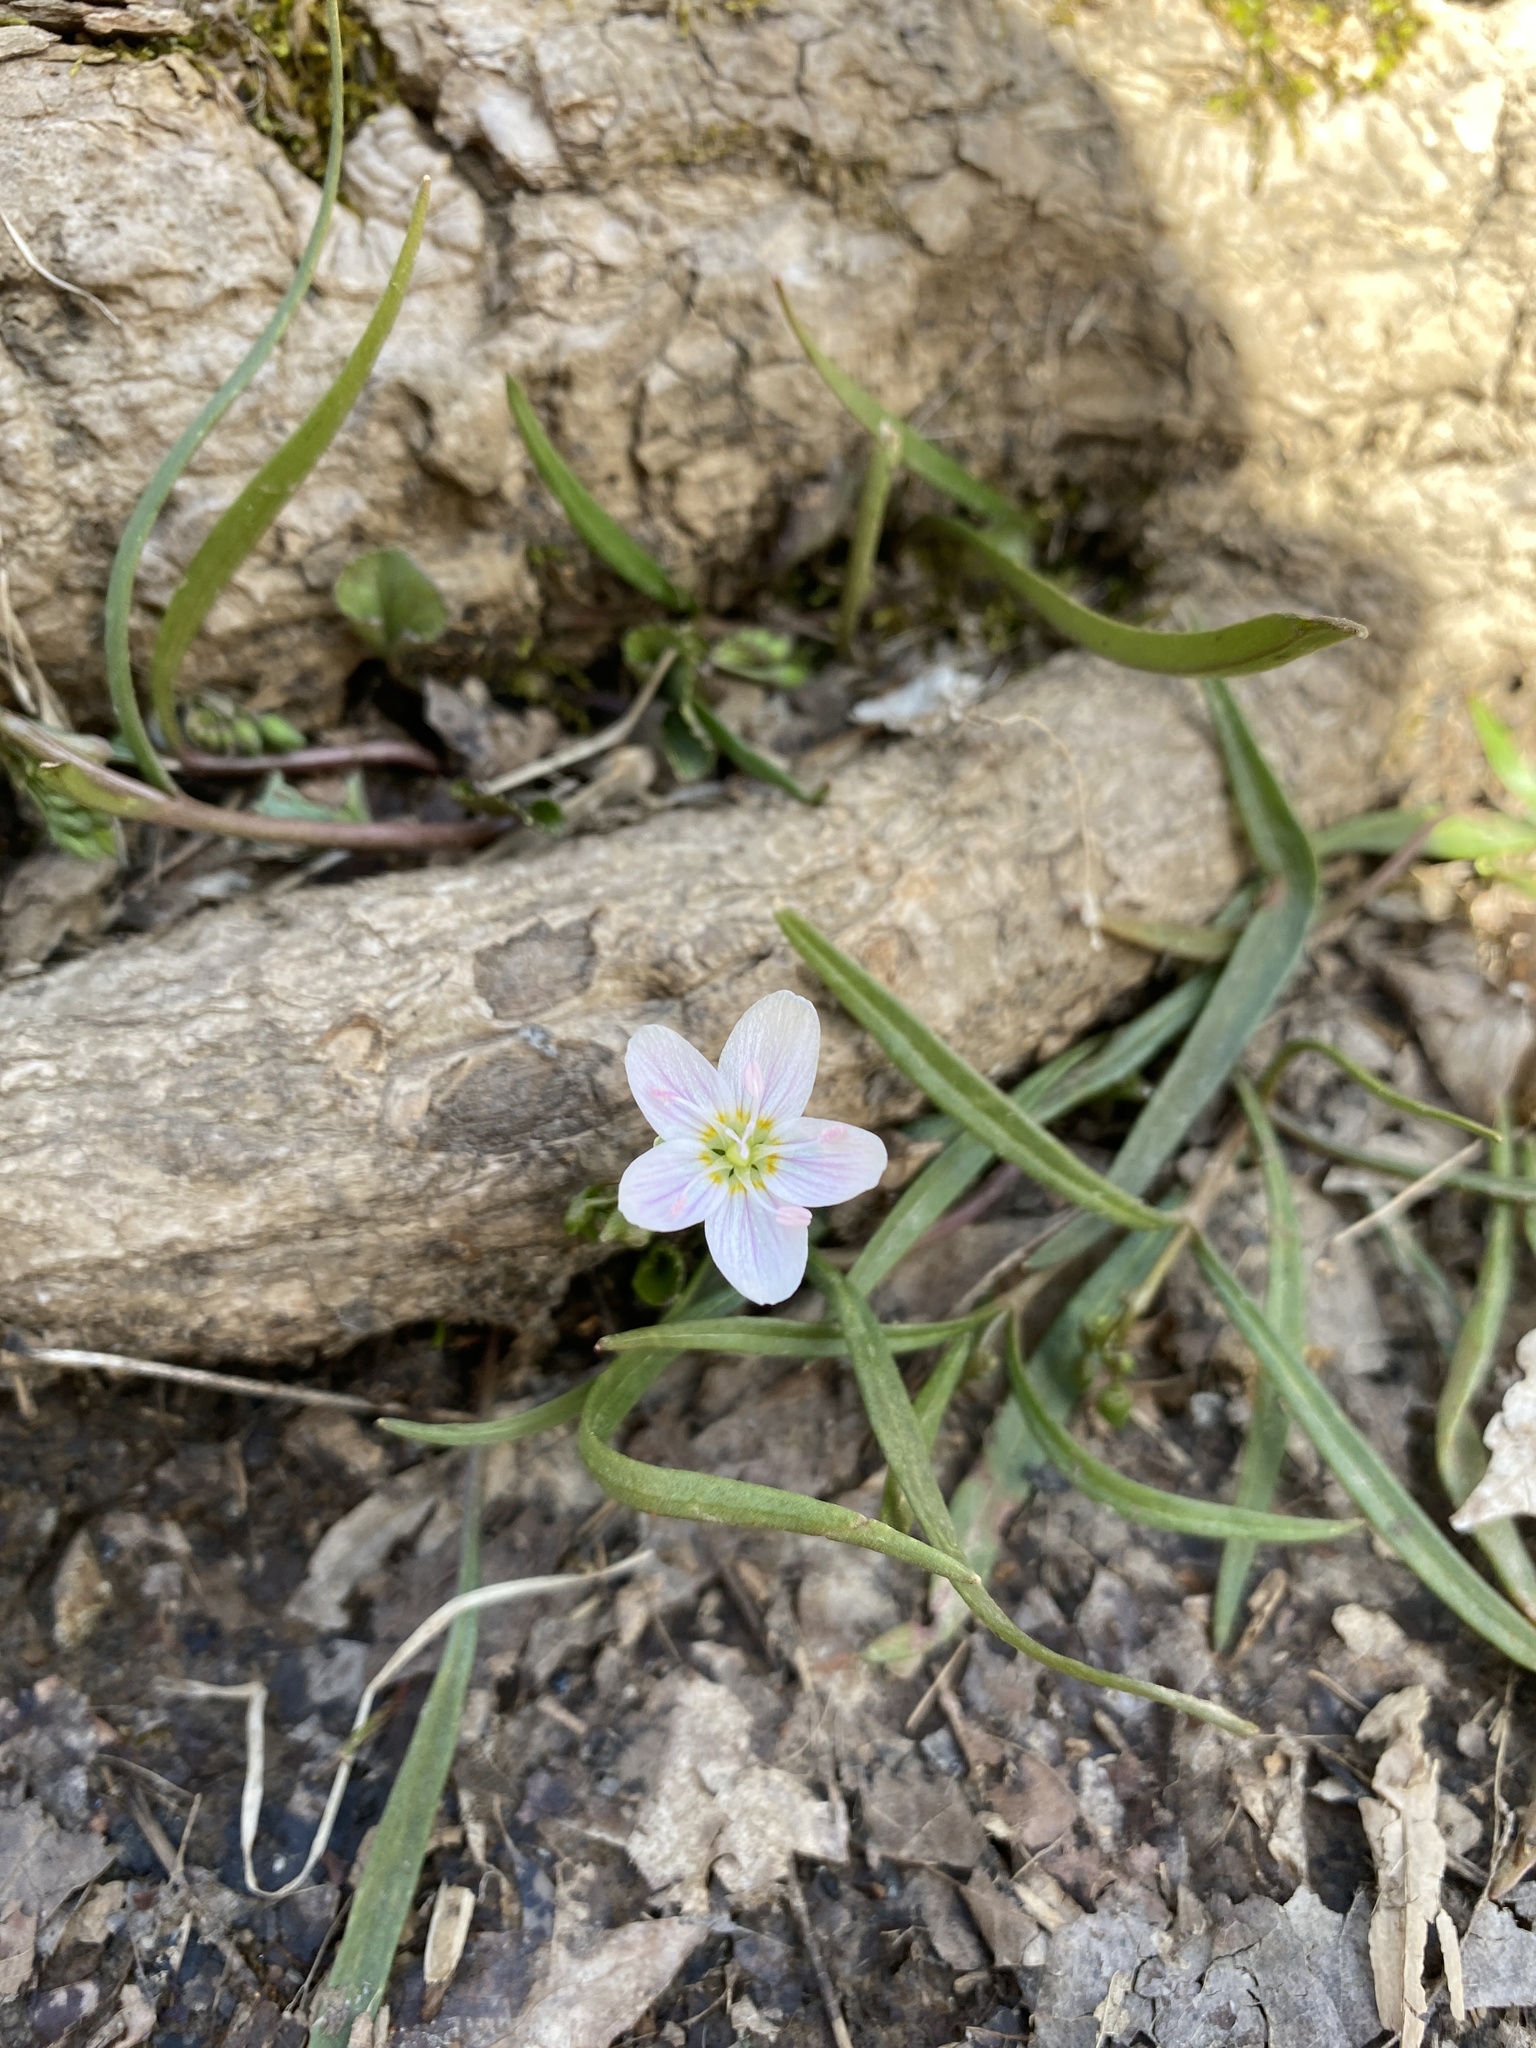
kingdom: Plantae
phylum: Tracheophyta
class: Magnoliopsida
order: Caryophyllales
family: Montiaceae
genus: Claytonia
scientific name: Claytonia virginica
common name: Virginia springbeauty
